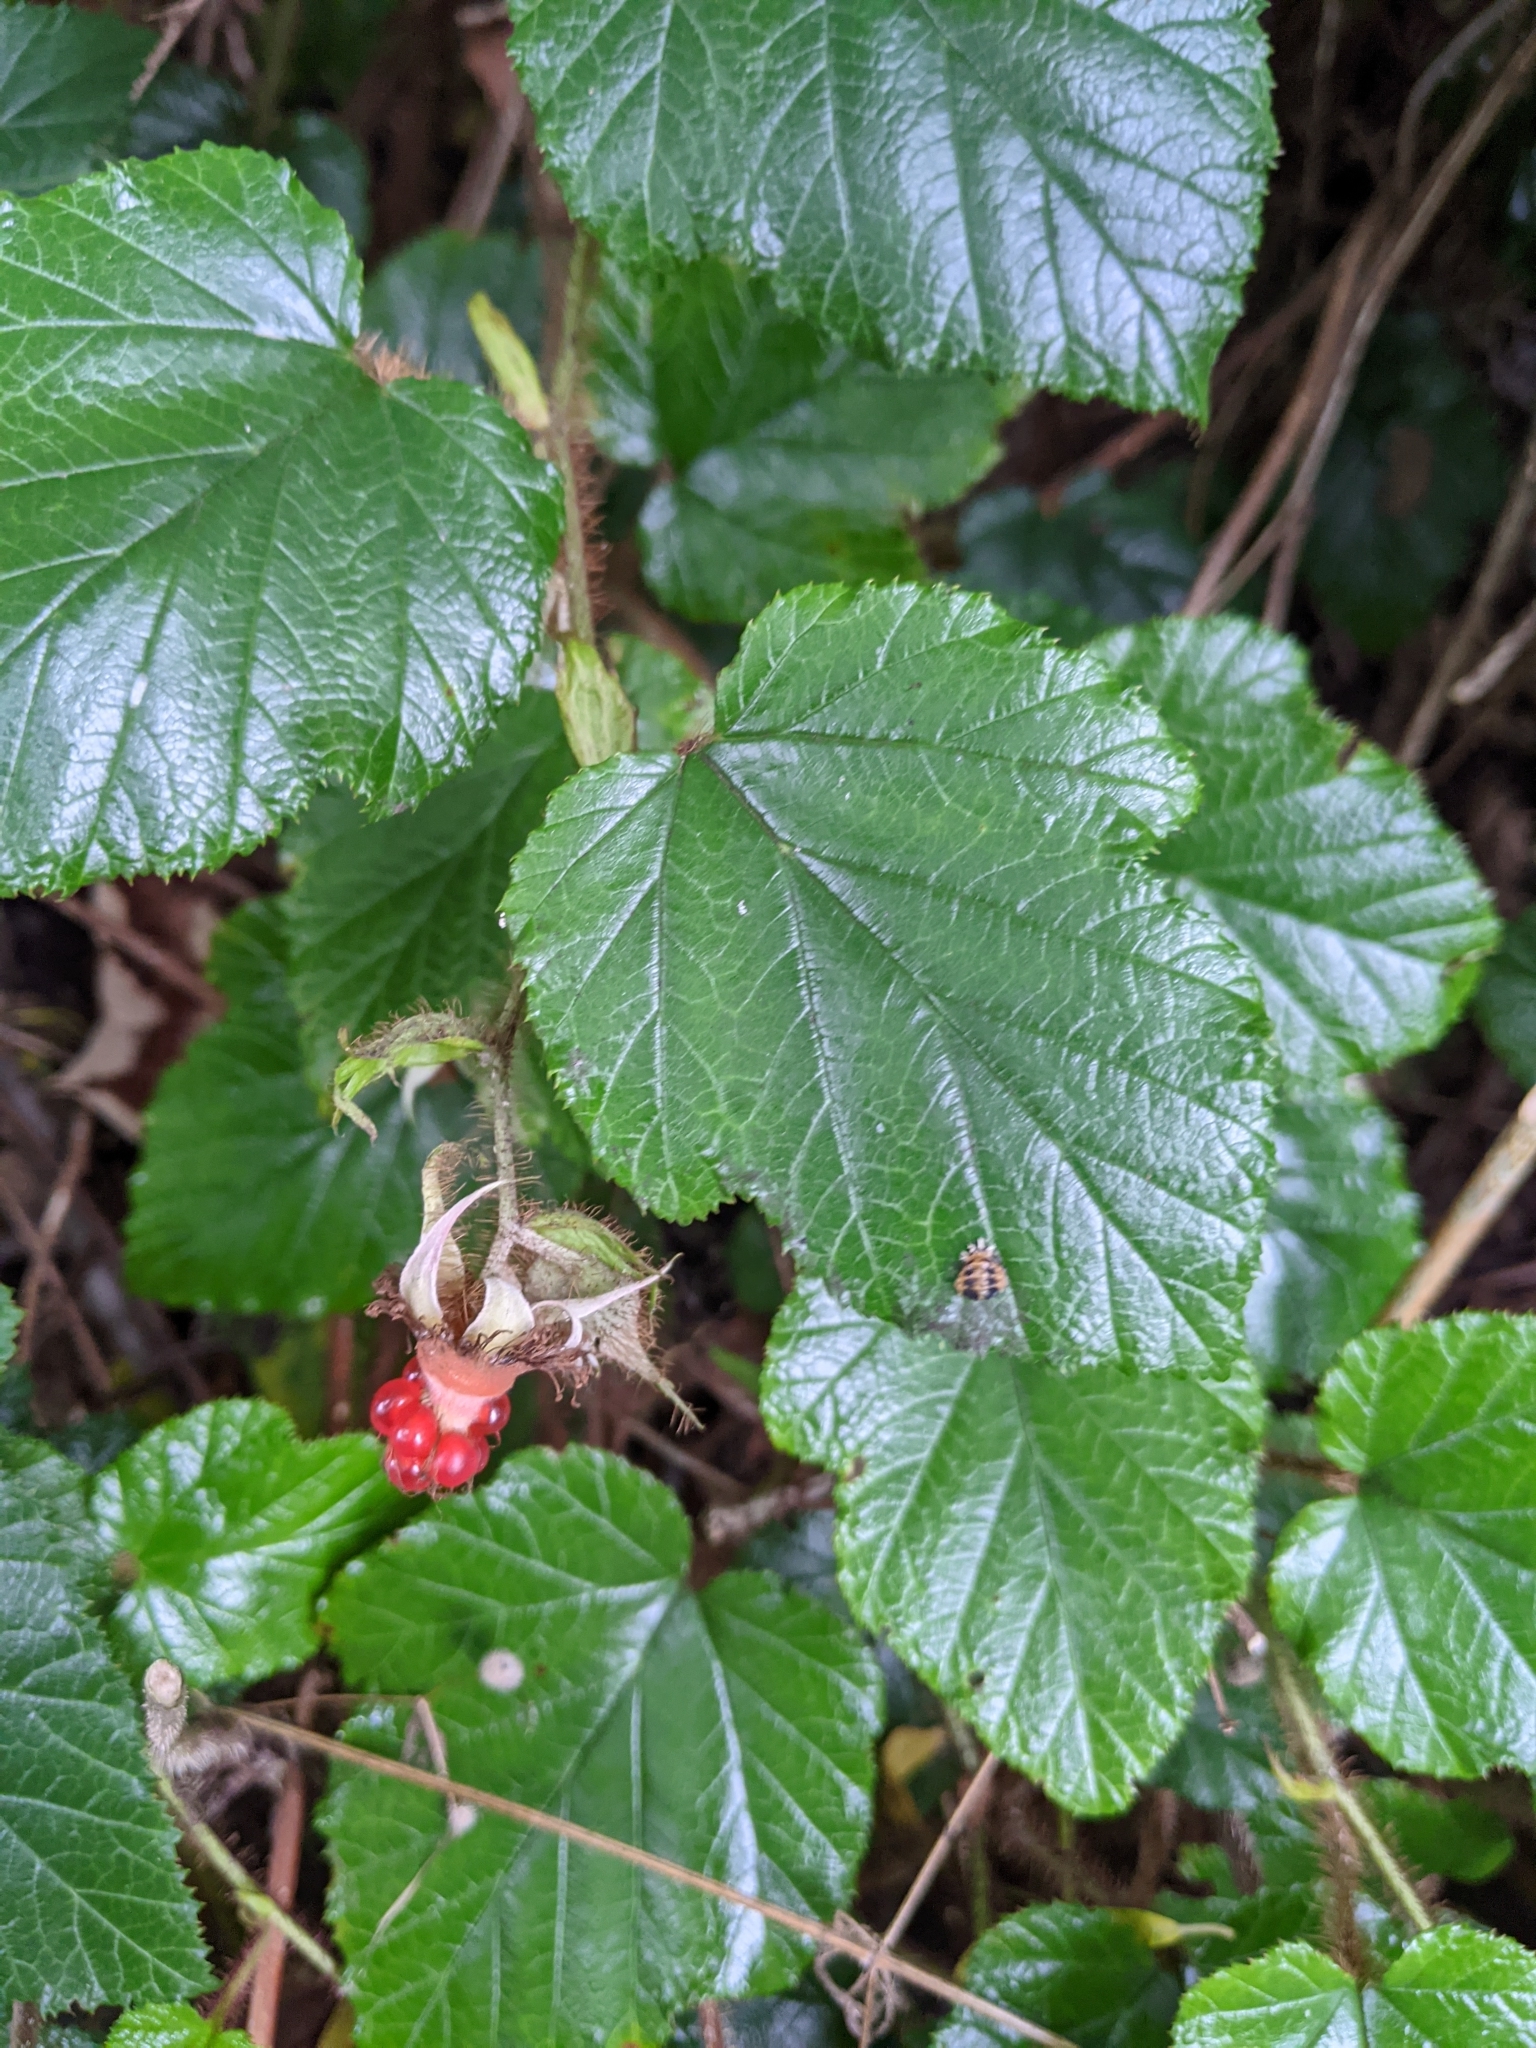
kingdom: Plantae
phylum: Tracheophyta
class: Magnoliopsida
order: Rosales
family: Rosaceae
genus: Rubus
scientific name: Rubus tricolor
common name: Chinese bramble
